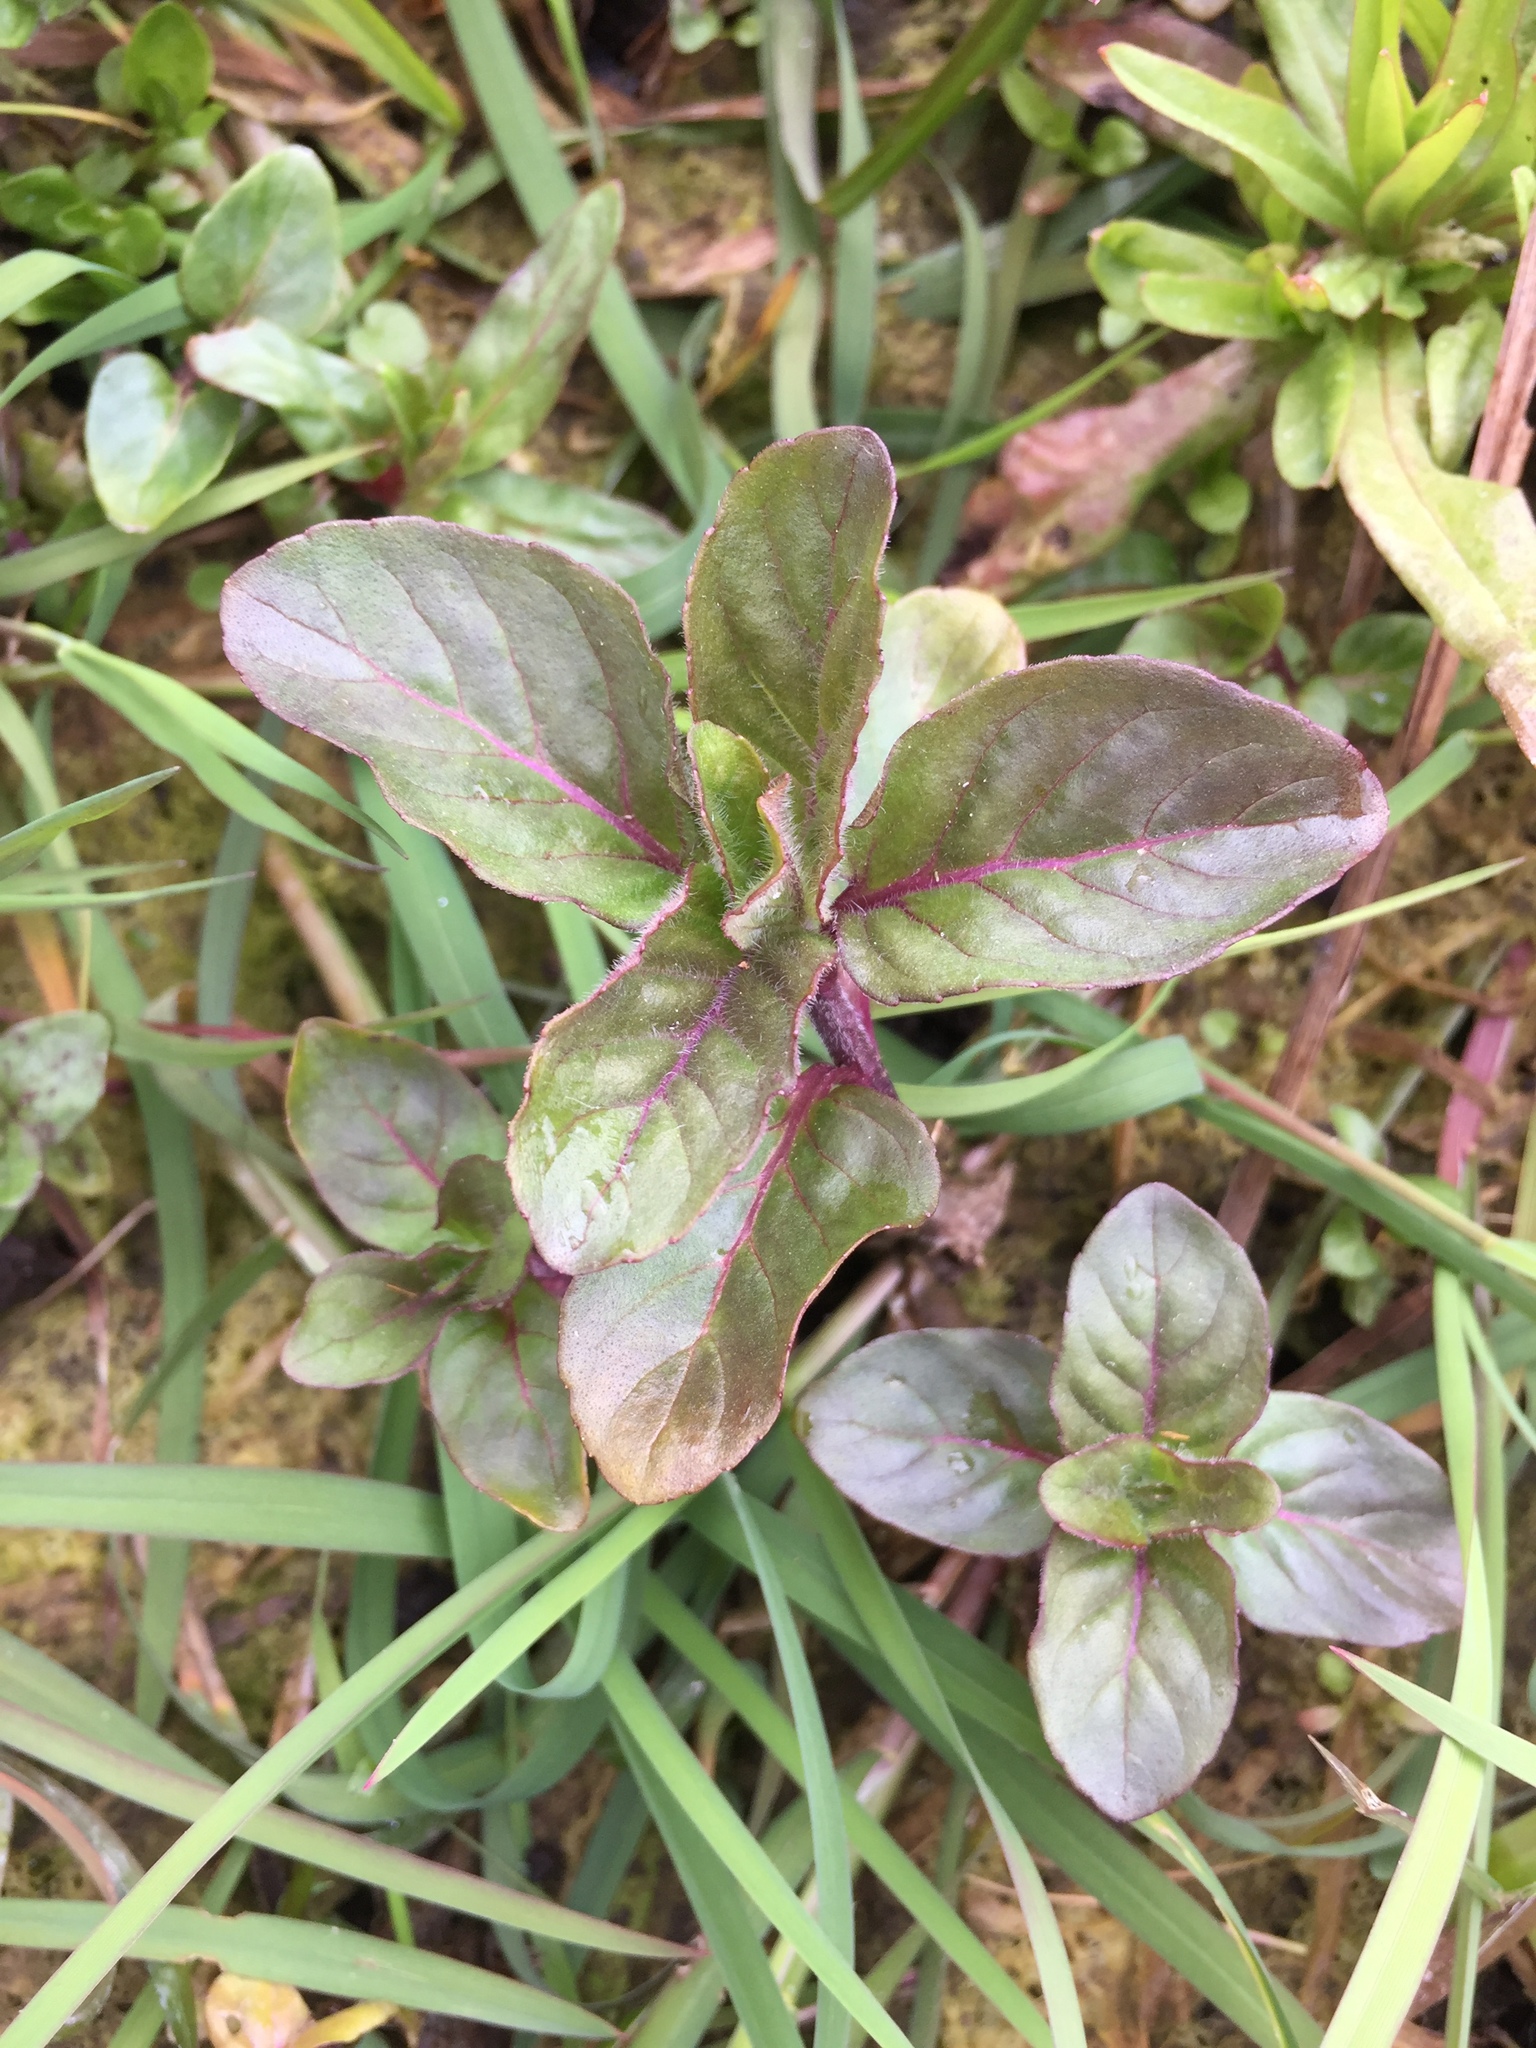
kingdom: Plantae
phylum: Tracheophyta
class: Magnoliopsida
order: Lamiales
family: Lamiaceae
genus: Mentha
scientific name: Mentha aquatica
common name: Water mint
